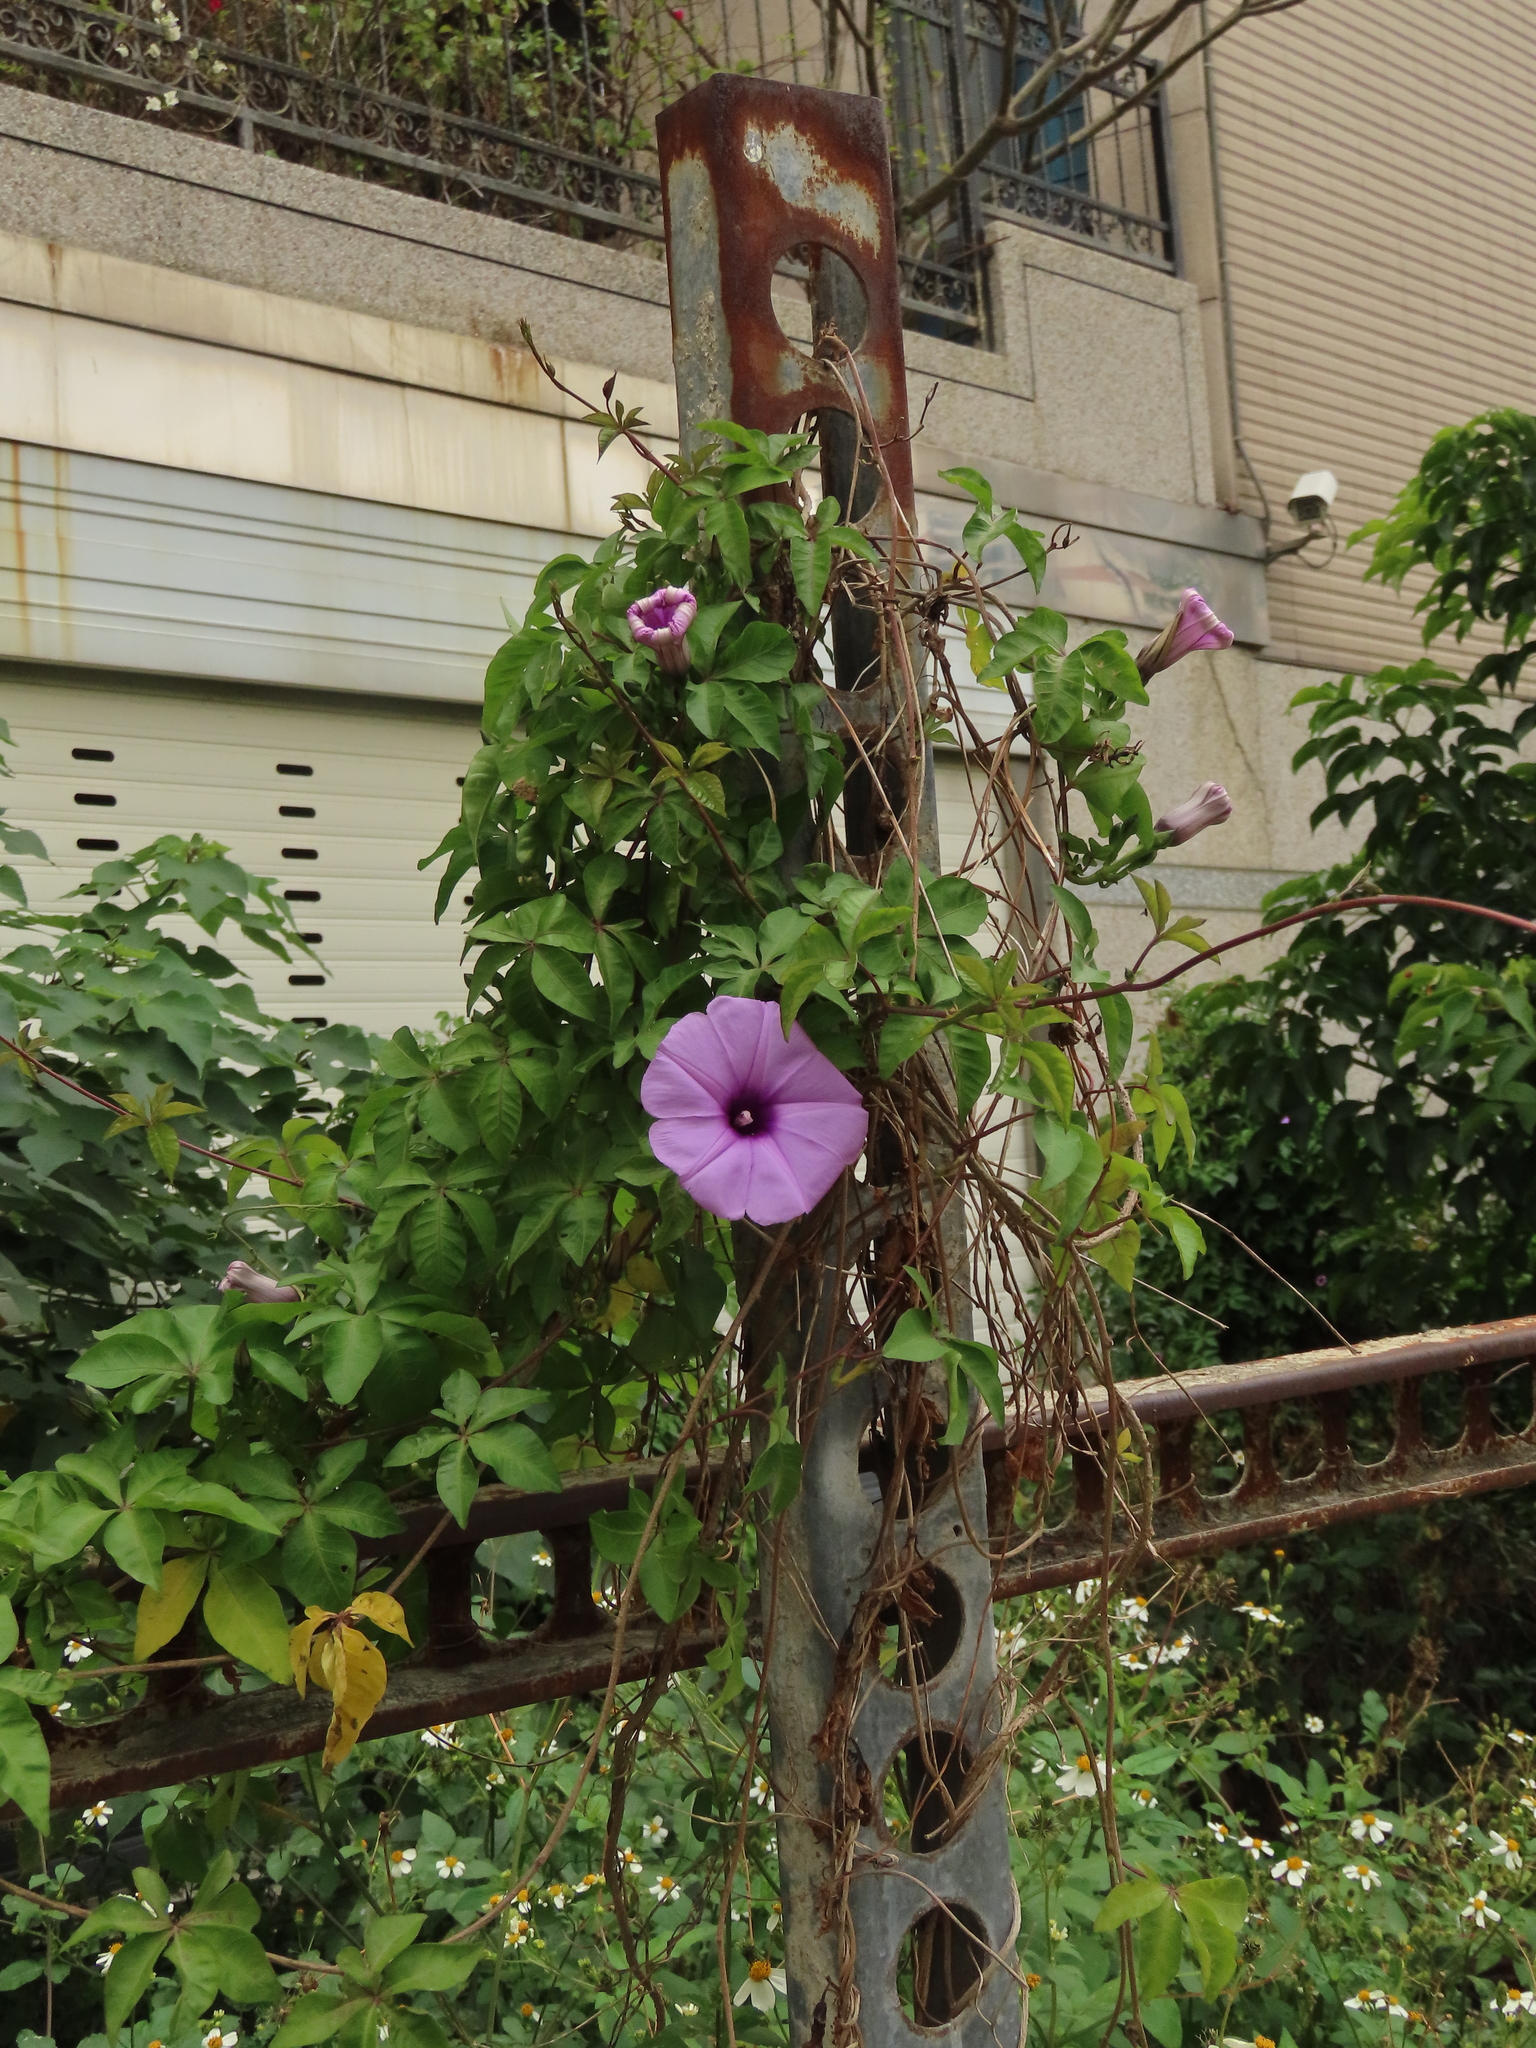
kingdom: Plantae
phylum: Tracheophyta
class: Magnoliopsida
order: Solanales
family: Convolvulaceae
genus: Ipomoea
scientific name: Ipomoea cairica
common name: Mile a minute vine
